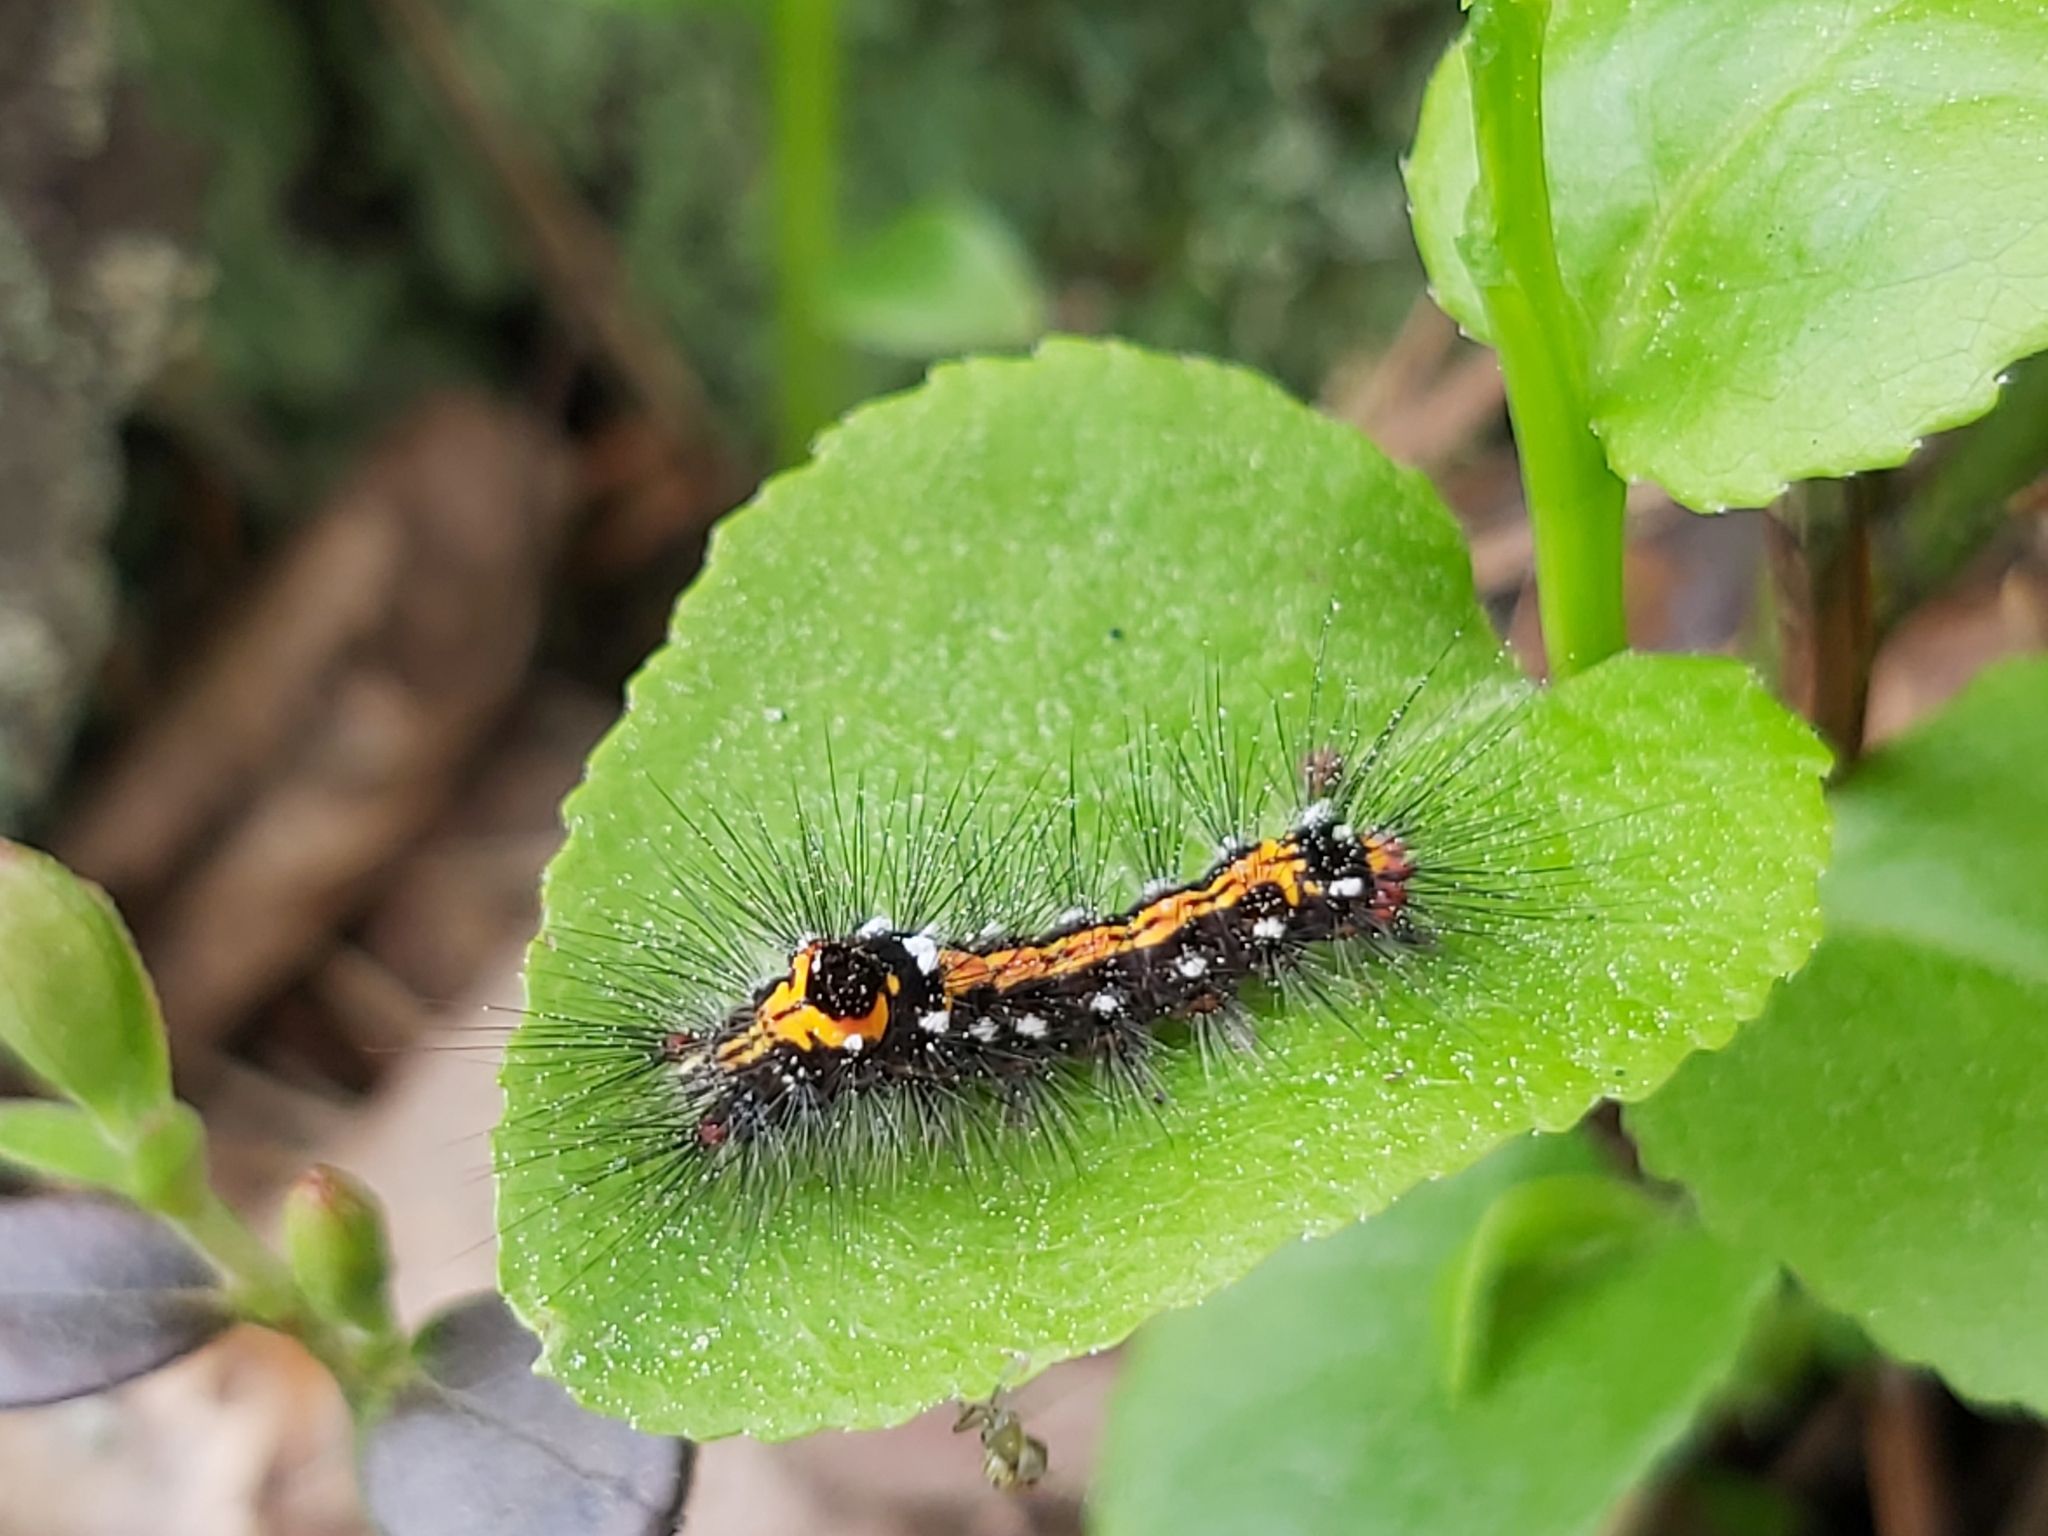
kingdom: Animalia
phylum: Arthropoda
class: Insecta
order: Lepidoptera
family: Erebidae
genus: Sphrageidus
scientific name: Sphrageidus similis
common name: Yellow-tail
